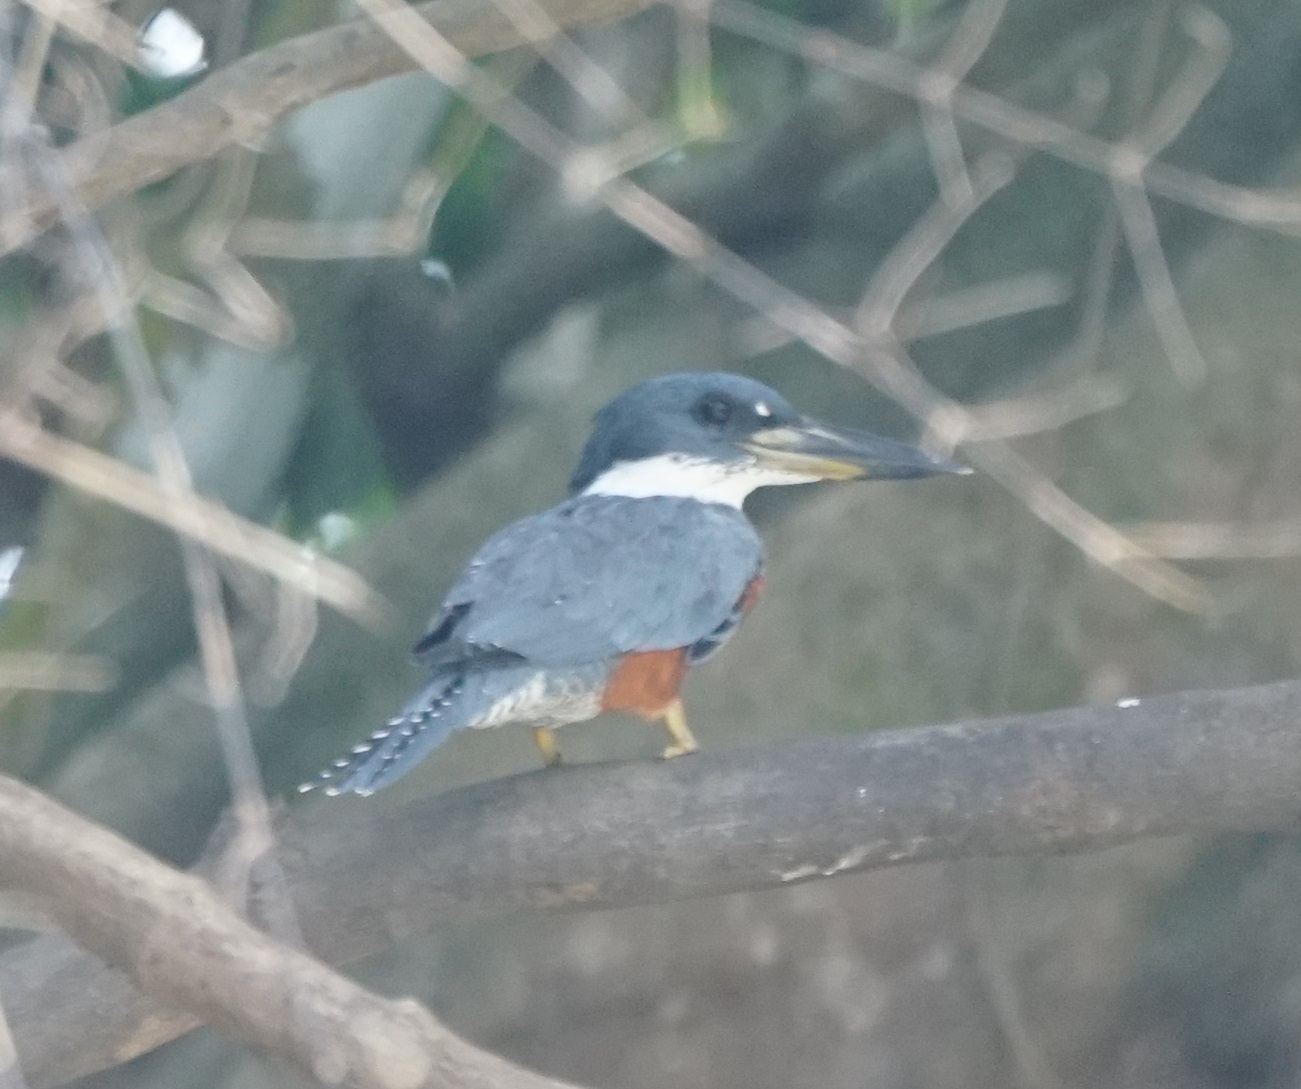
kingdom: Animalia
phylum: Chordata
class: Aves
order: Coraciiformes
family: Alcedinidae
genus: Megaceryle
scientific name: Megaceryle torquata
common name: Ringed kingfisher
